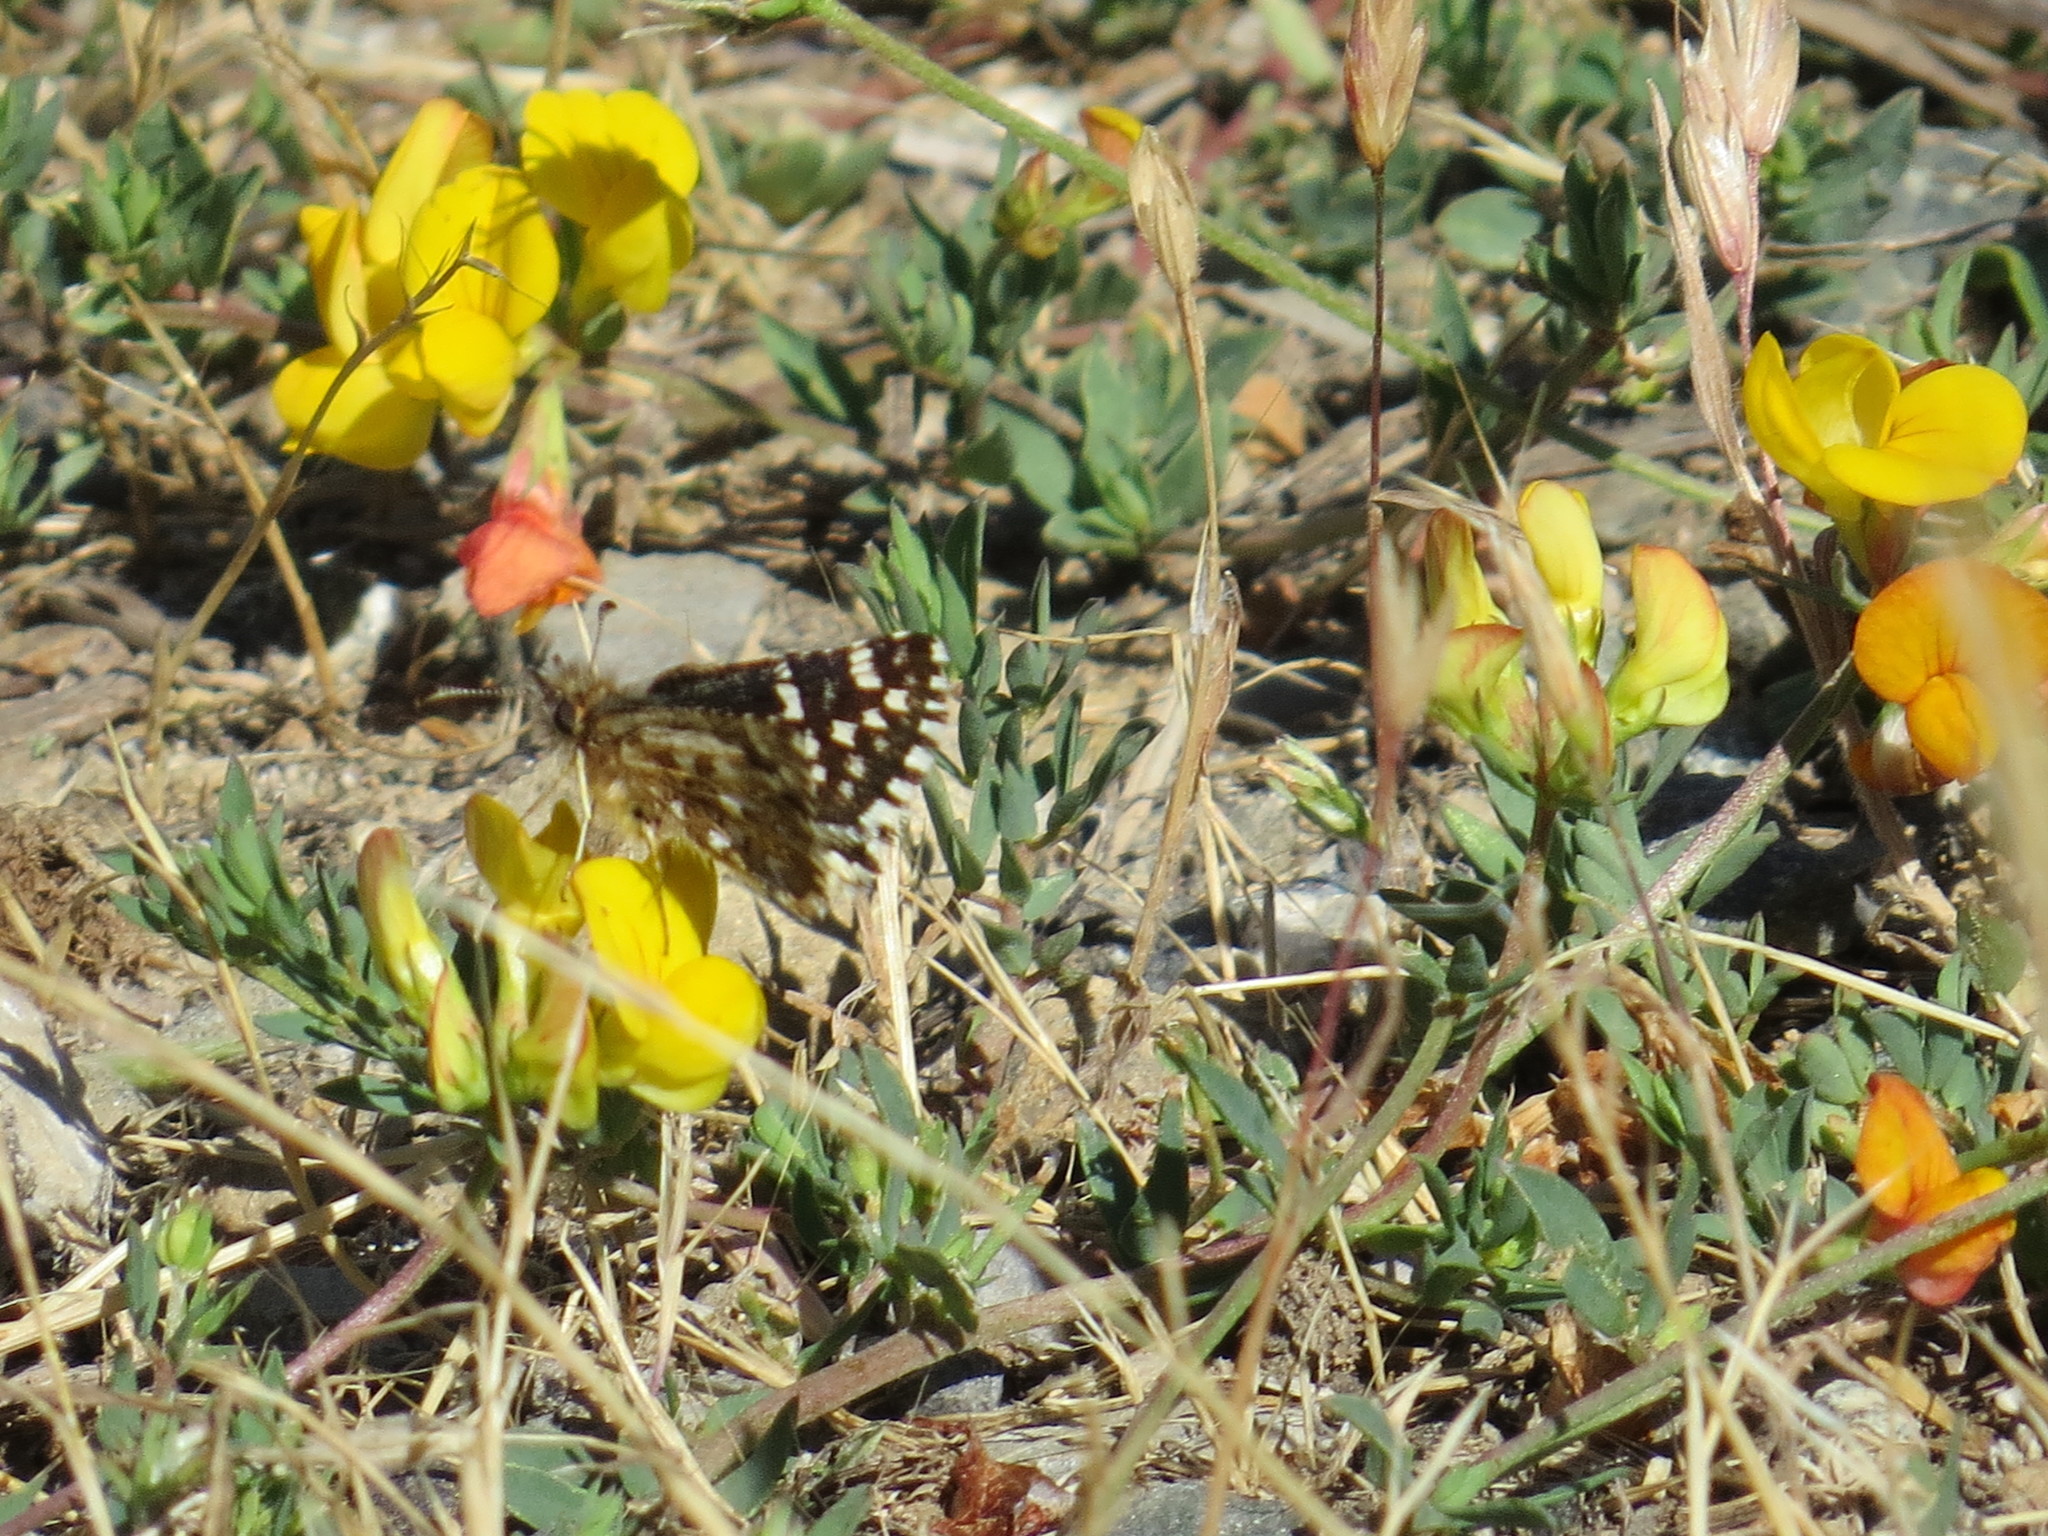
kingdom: Animalia
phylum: Arthropoda
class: Insecta
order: Lepidoptera
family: Hesperiidae
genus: Pyrgus
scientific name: Pyrgus ruralis
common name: Two-banded checkered-skipper
